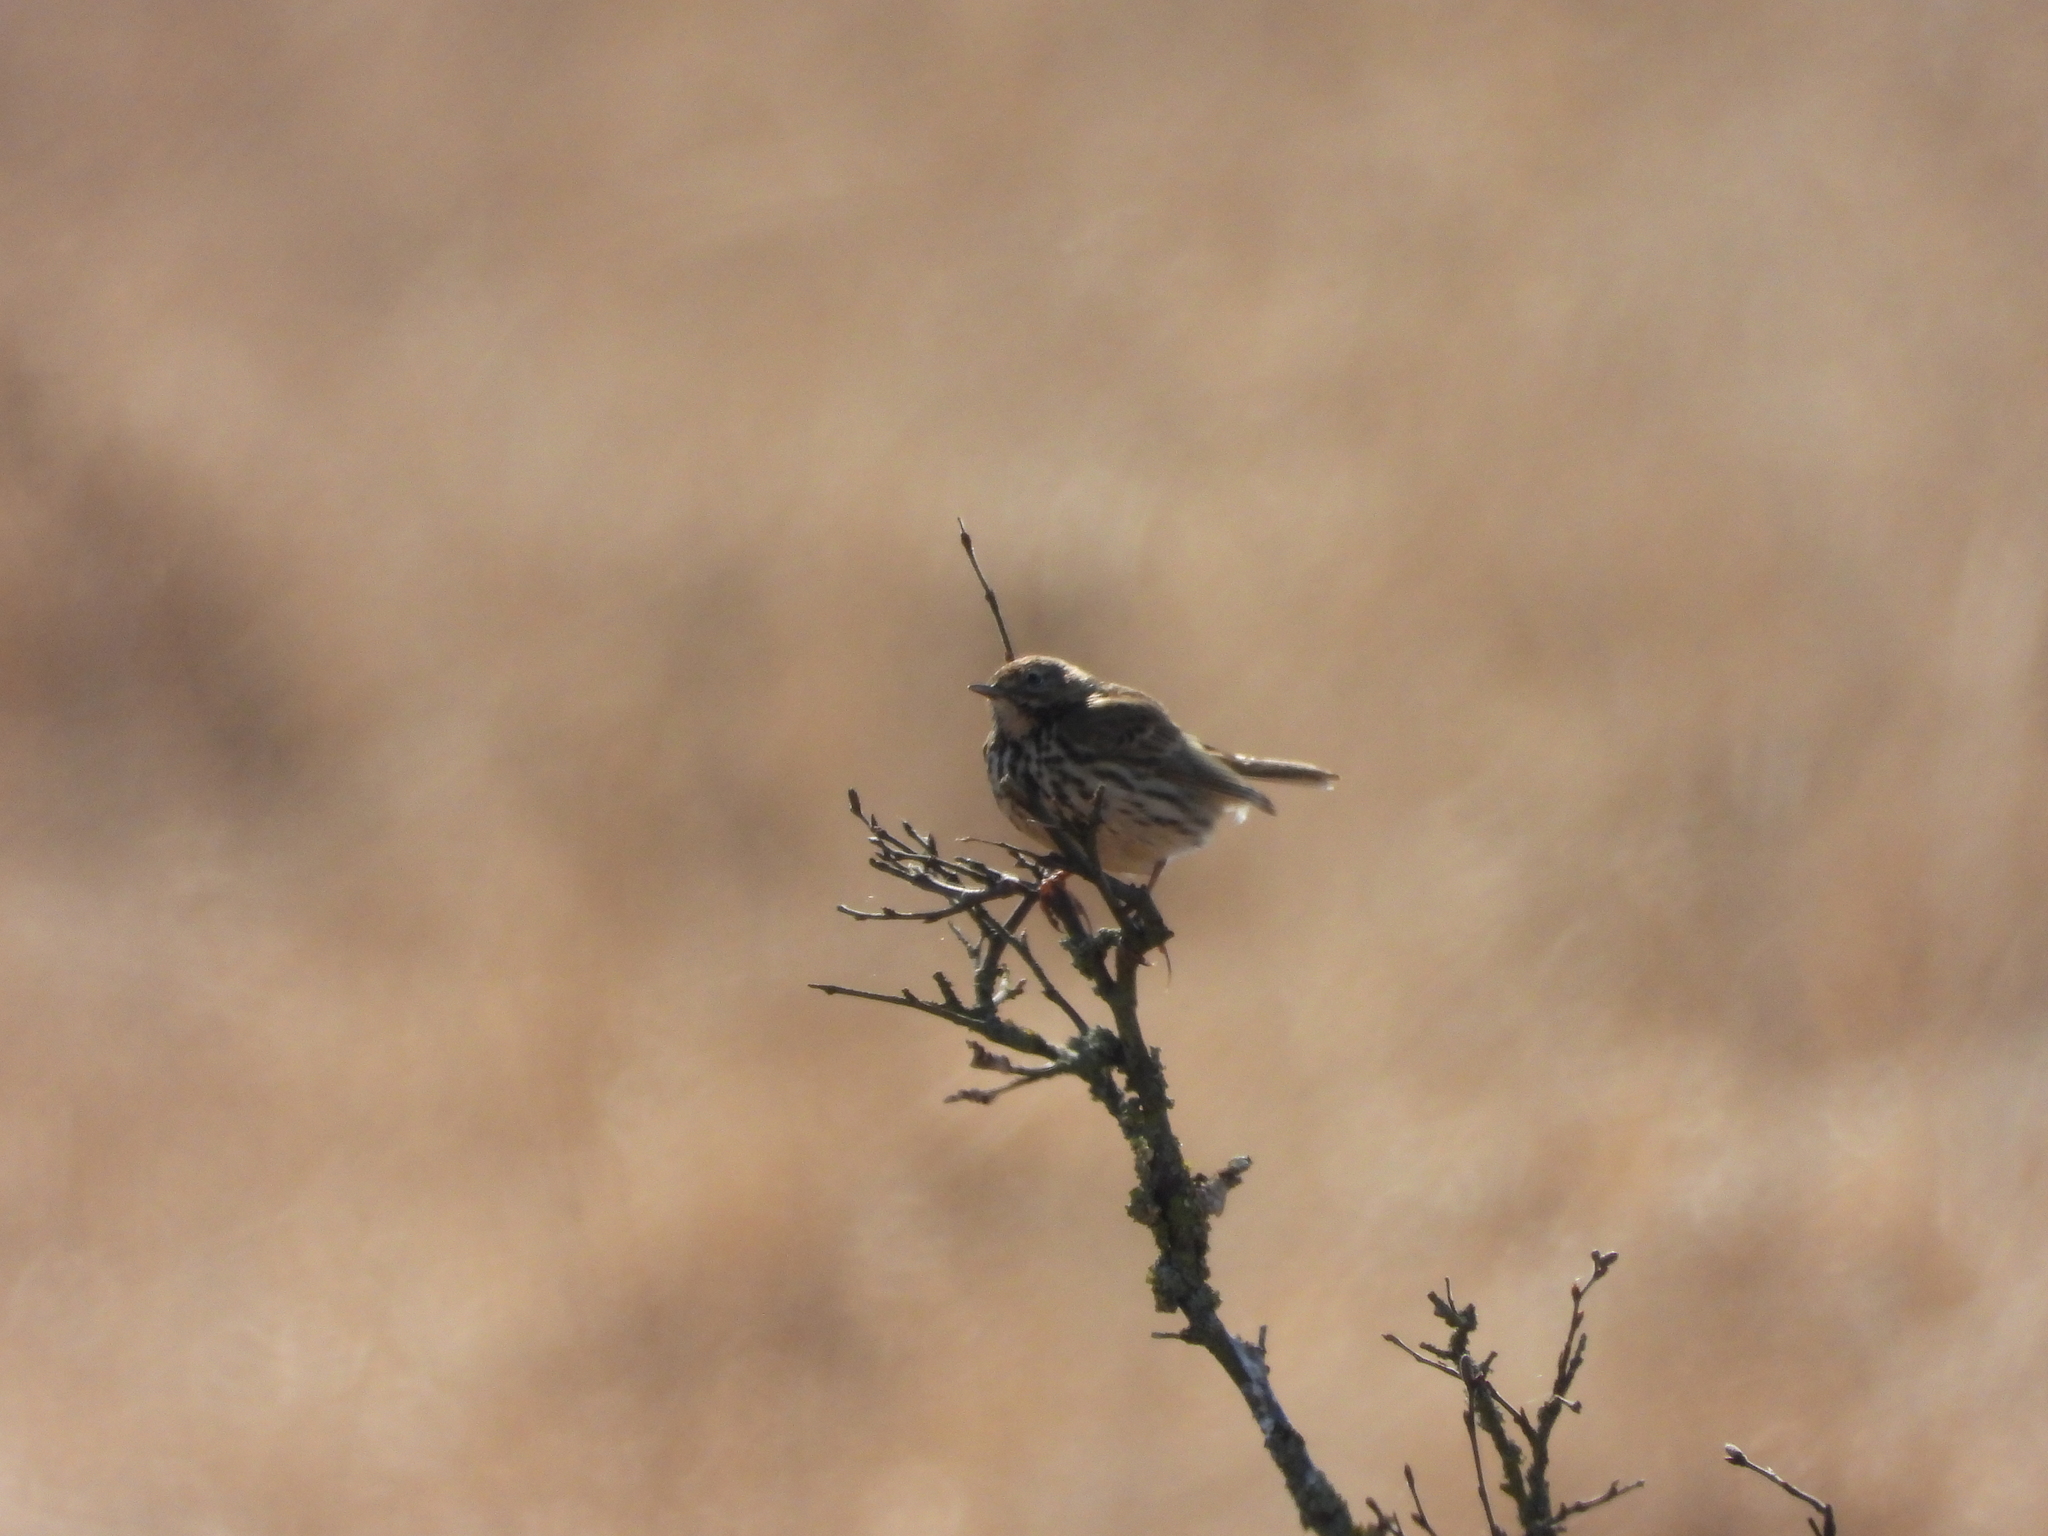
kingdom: Animalia
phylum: Chordata
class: Aves
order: Passeriformes
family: Motacillidae
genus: Anthus
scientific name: Anthus pratensis
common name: Meadow pipit
